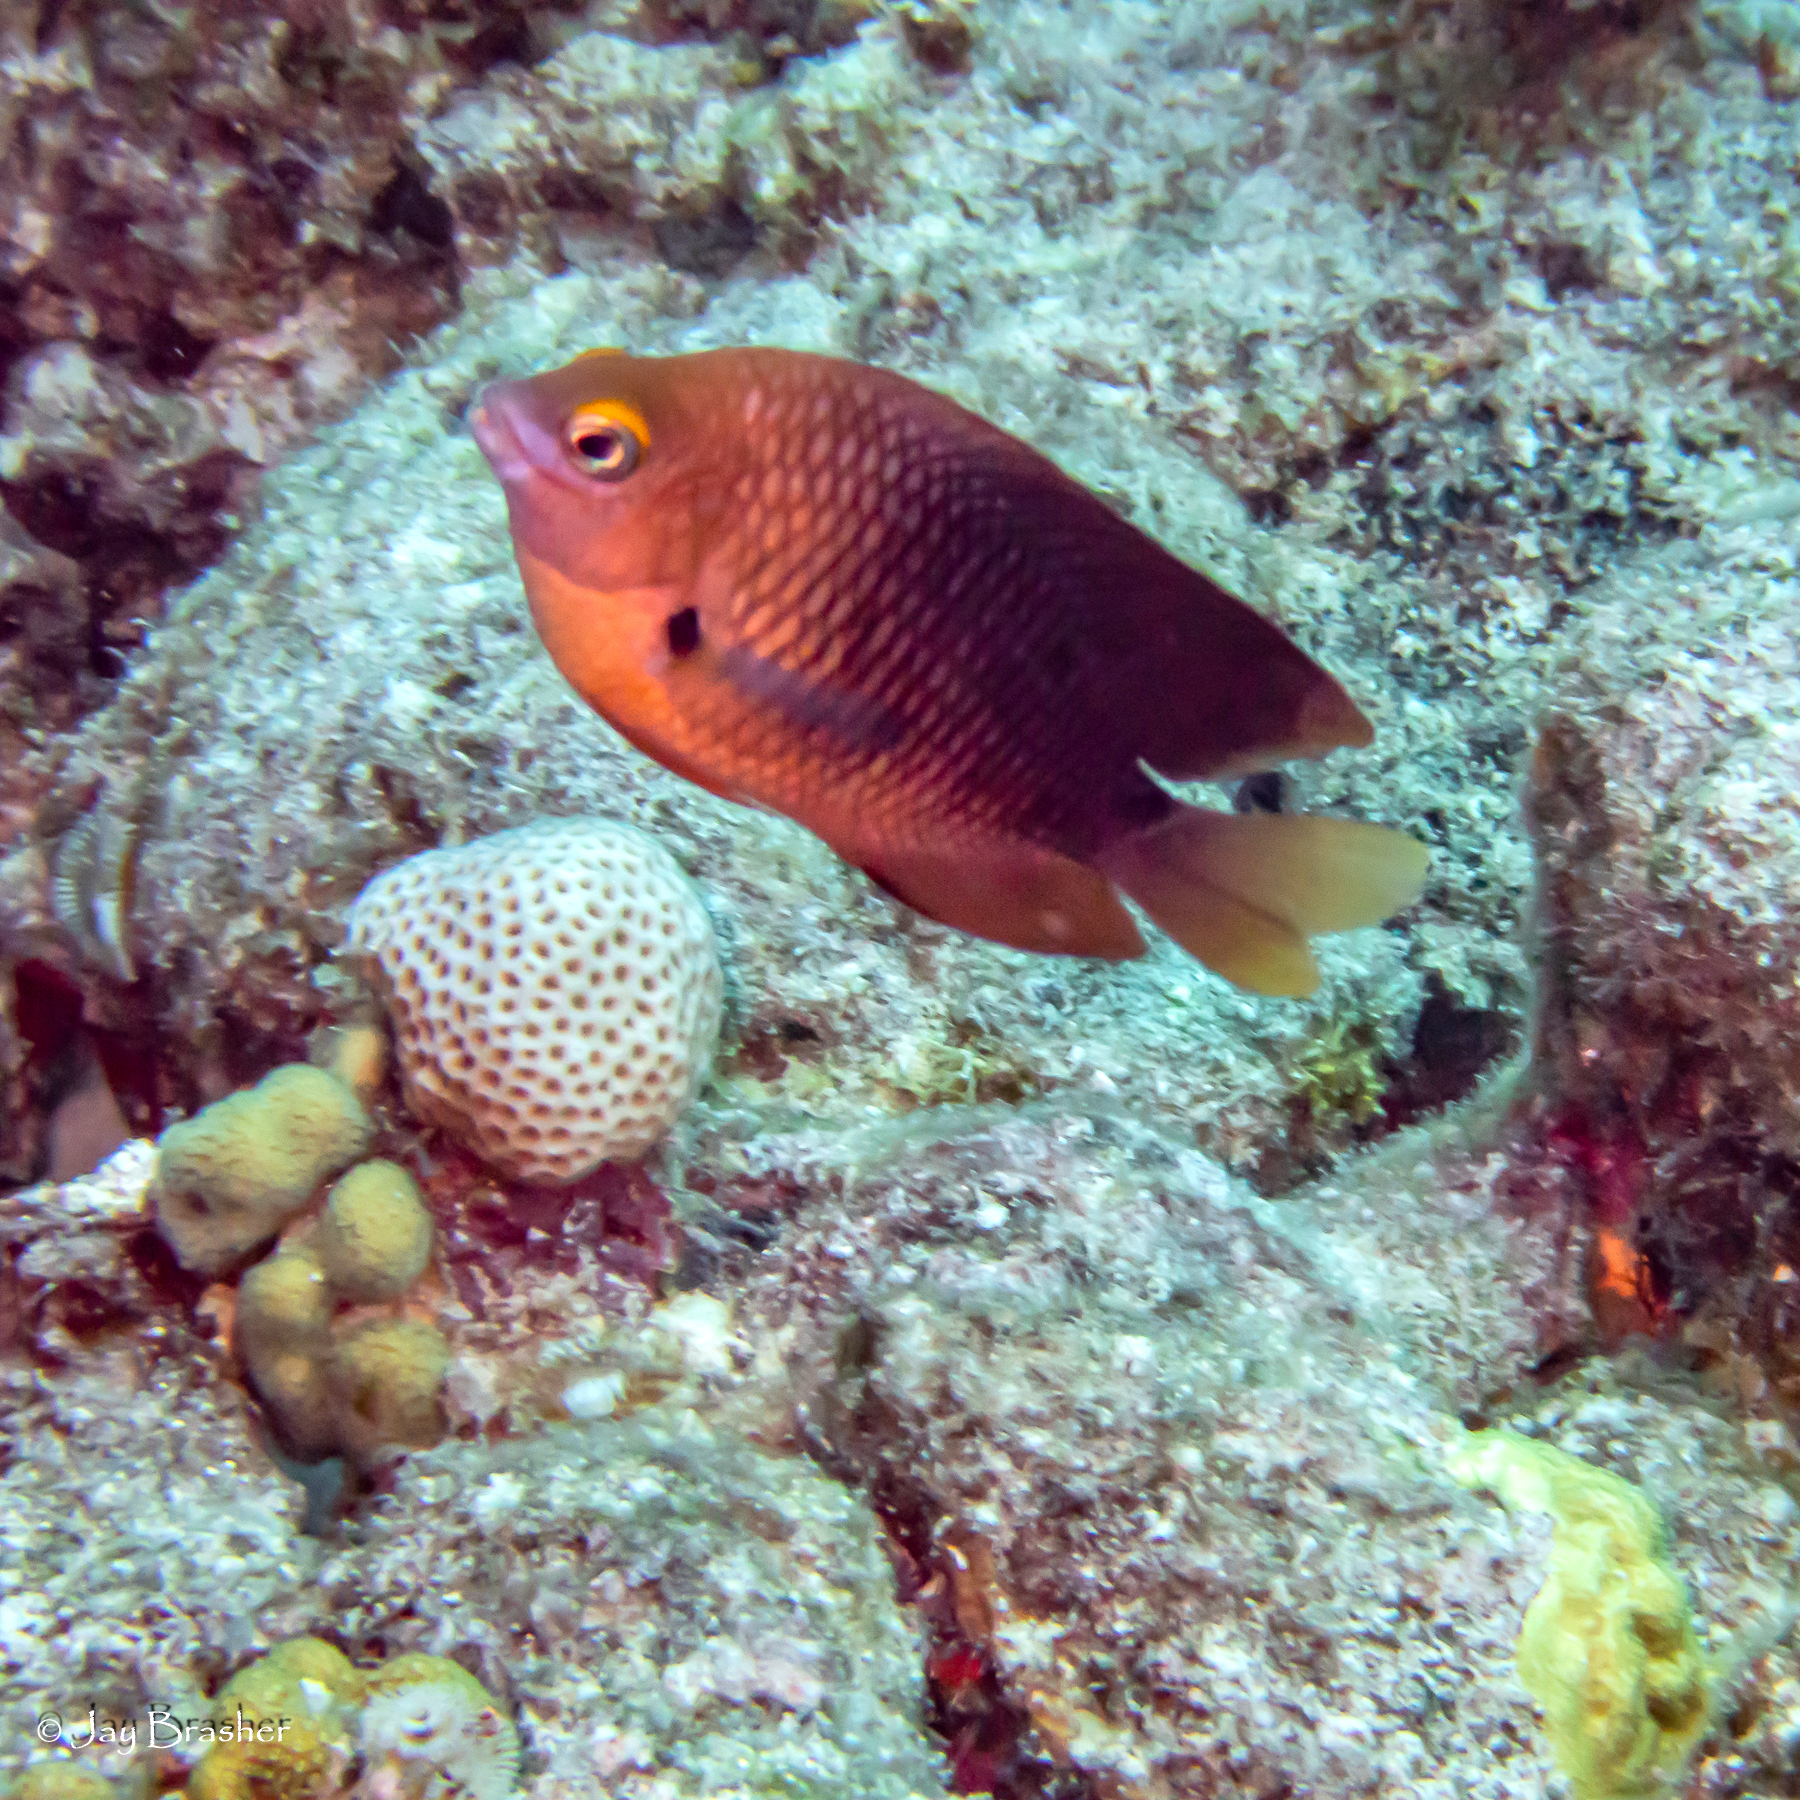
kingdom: Animalia
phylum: Chordata
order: Perciformes
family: Pomacentridae
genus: Stegastes
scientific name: Stegastes planifrons
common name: Threespot damselfish
